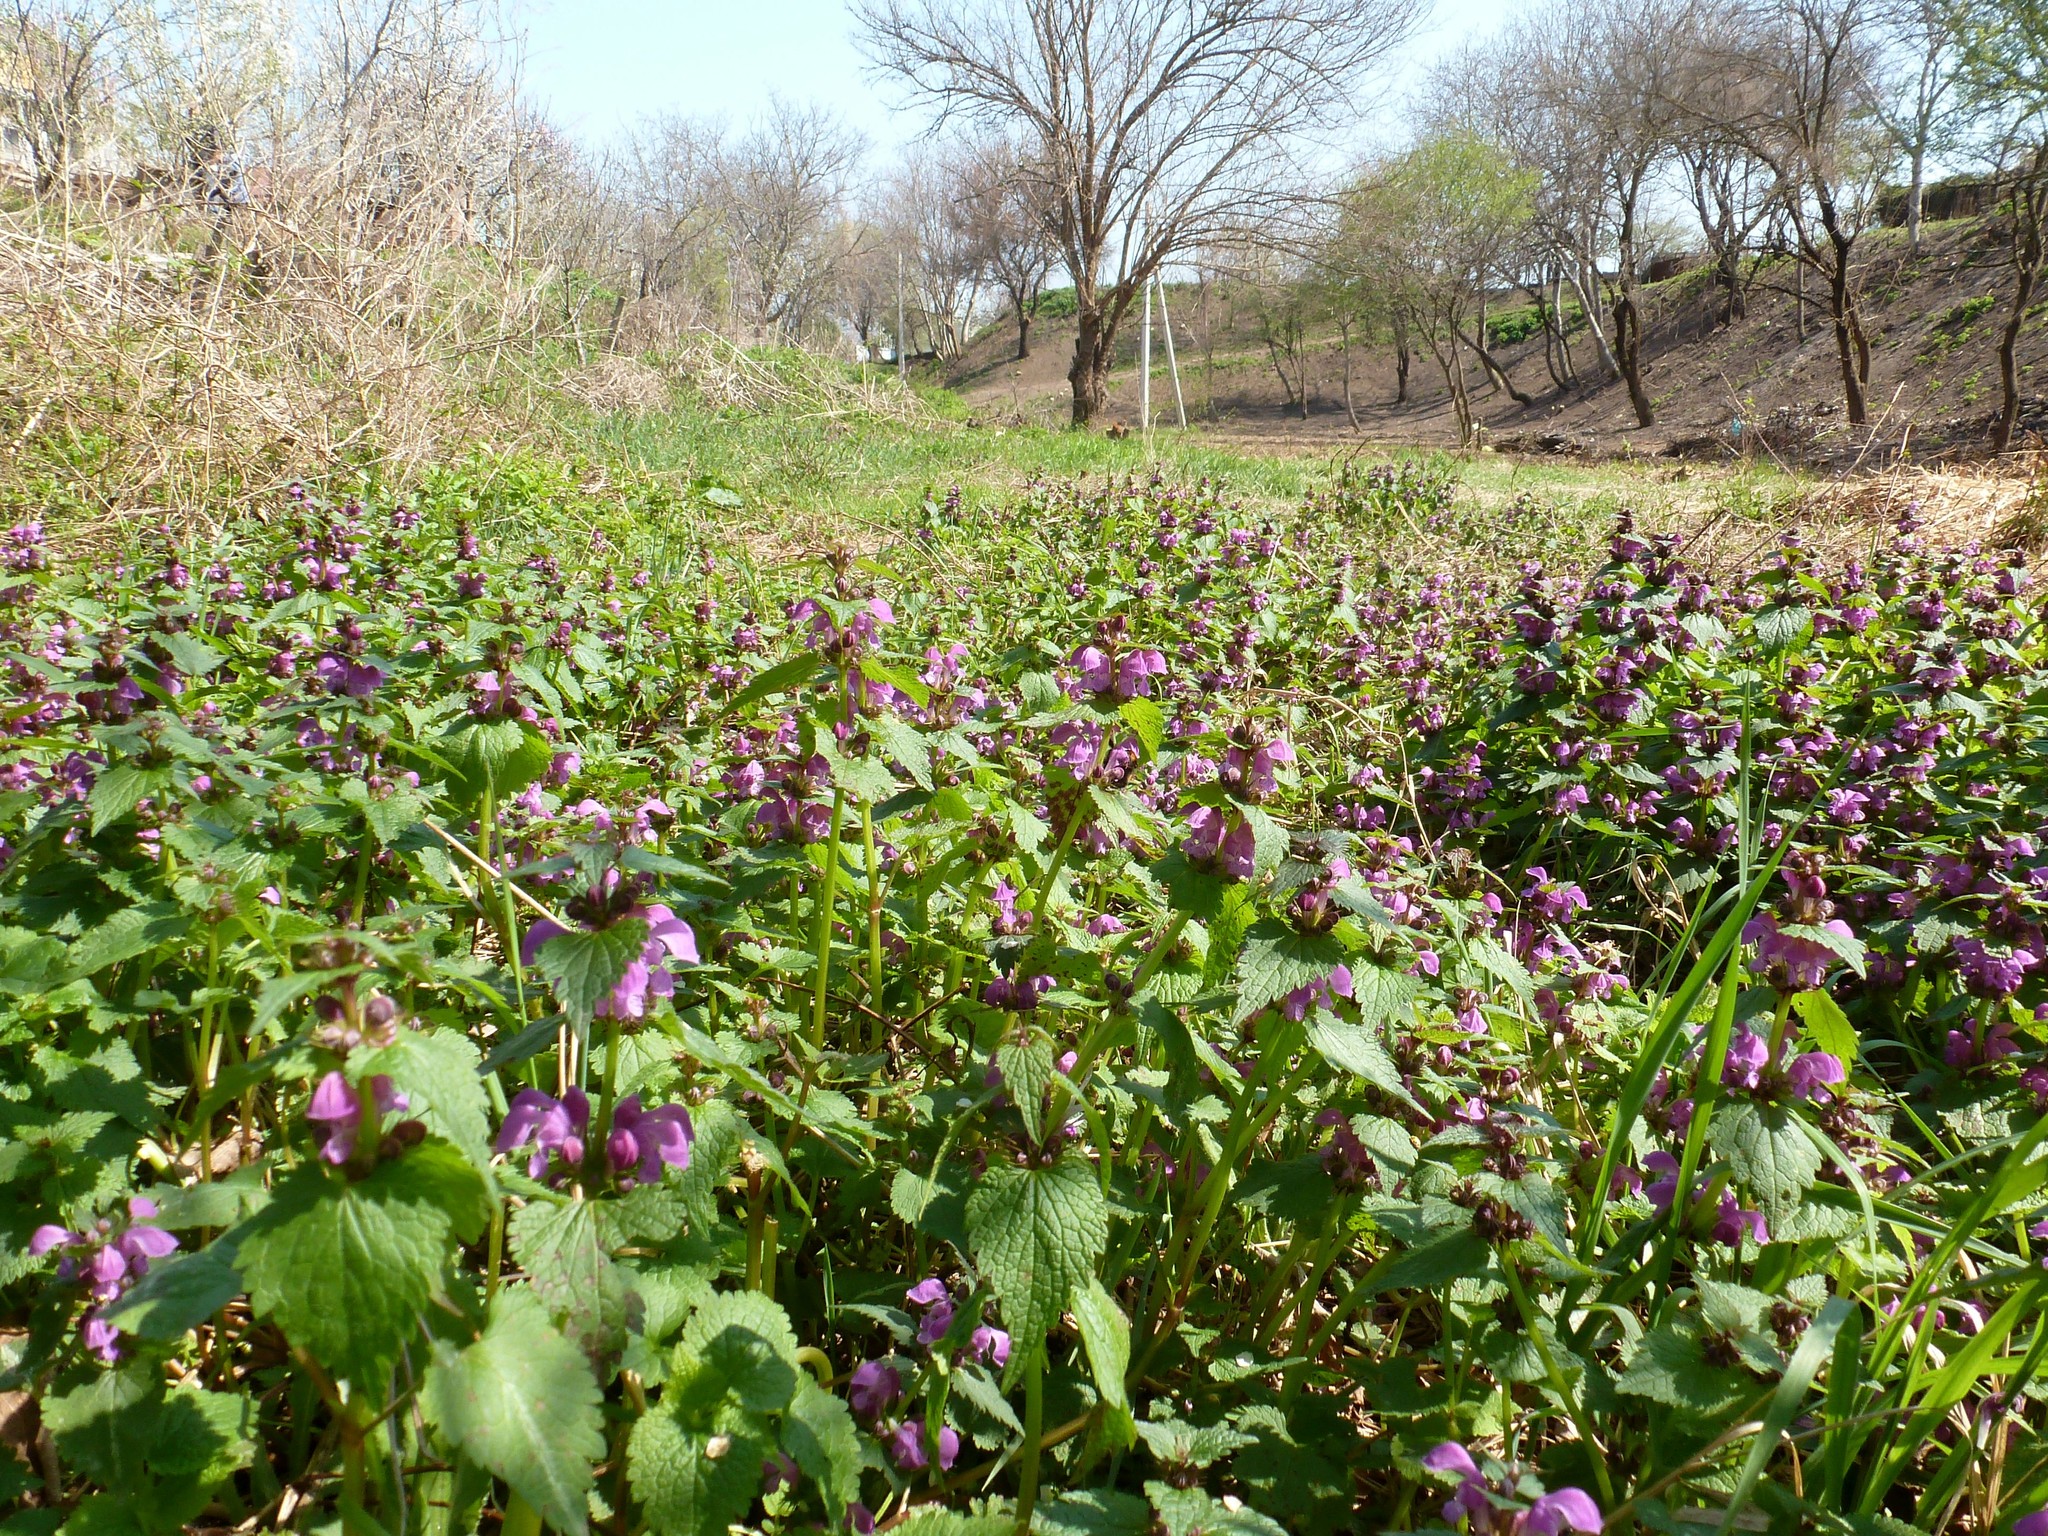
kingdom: Plantae
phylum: Tracheophyta
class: Magnoliopsida
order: Lamiales
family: Lamiaceae
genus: Lamium
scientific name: Lamium maculatum
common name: Spotted dead-nettle
